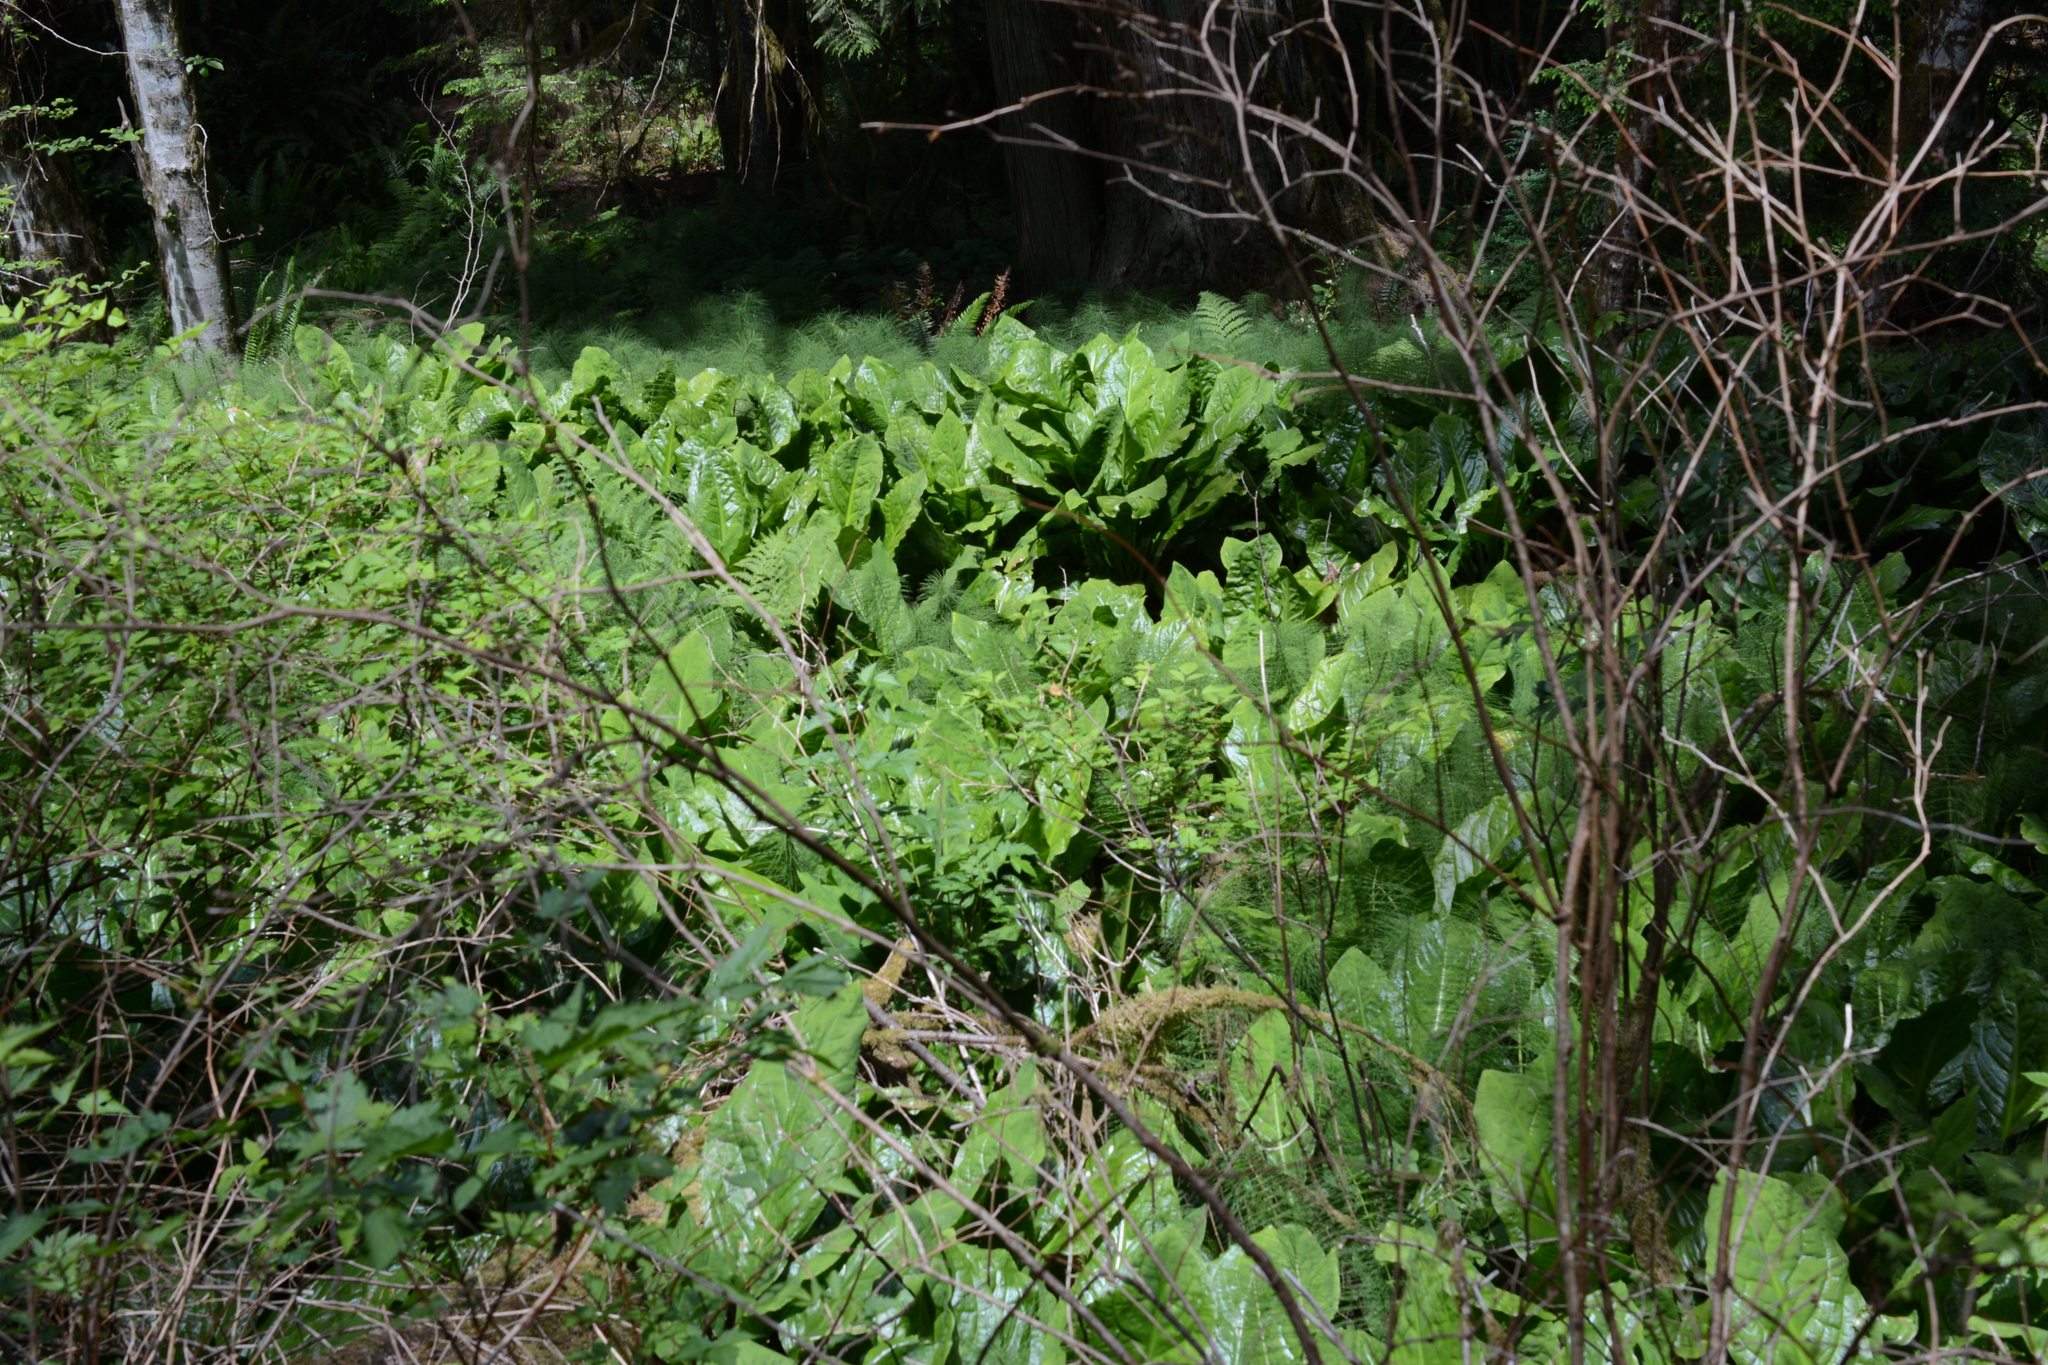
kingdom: Plantae
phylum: Tracheophyta
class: Liliopsida
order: Alismatales
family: Araceae
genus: Lysichiton
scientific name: Lysichiton americanus
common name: American skunk cabbage
